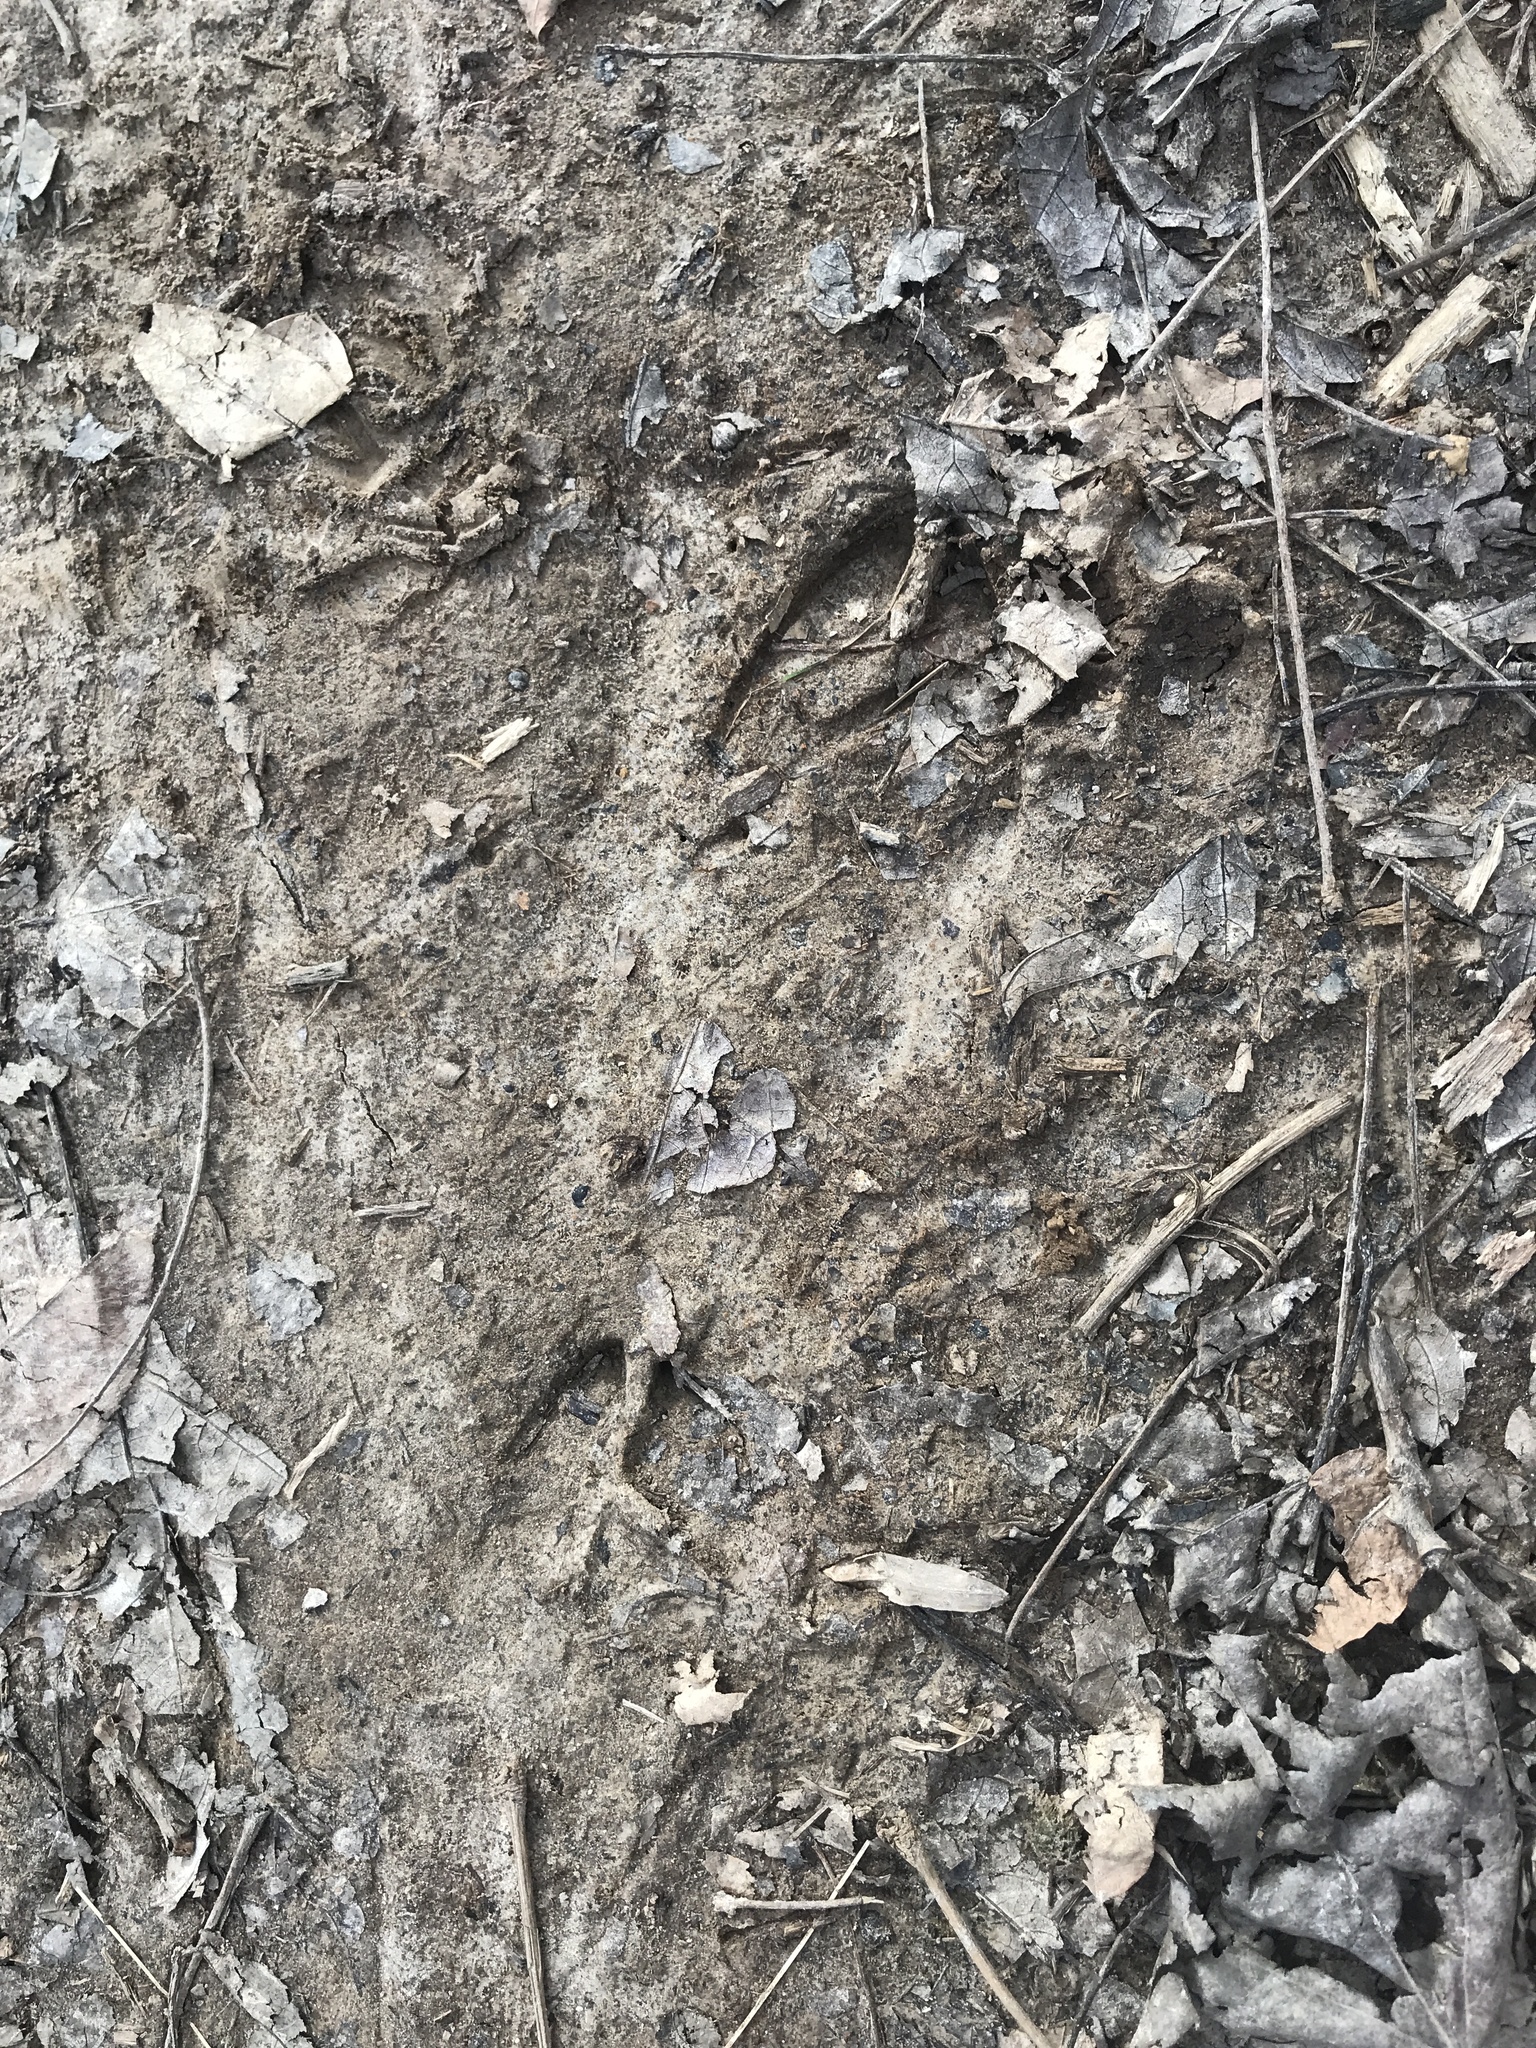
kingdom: Animalia
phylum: Chordata
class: Mammalia
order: Artiodactyla
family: Cervidae
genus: Odocoileus
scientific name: Odocoileus virginianus
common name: White-tailed deer
